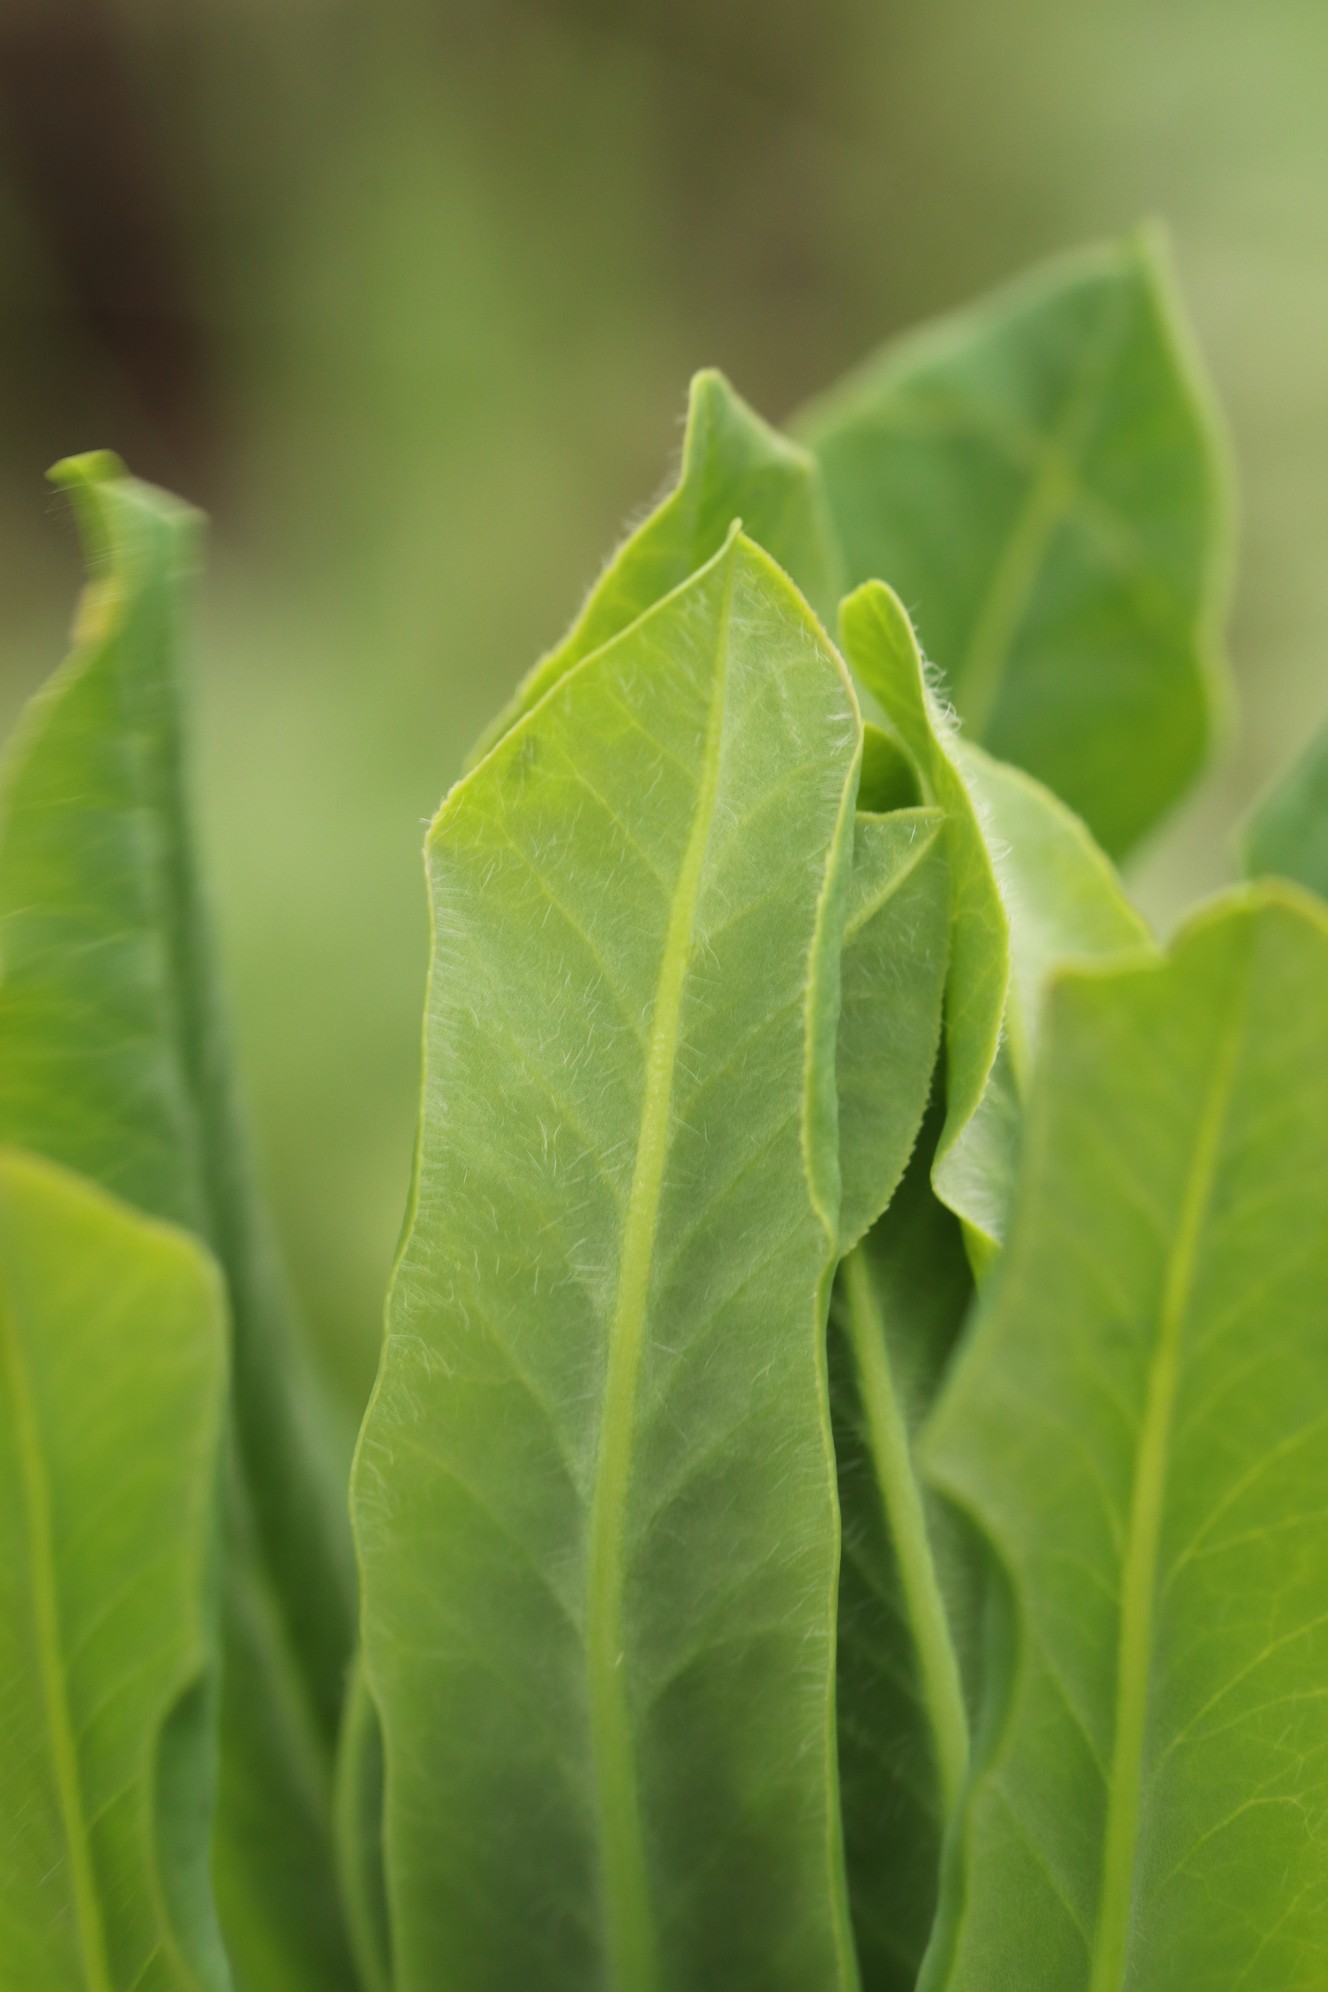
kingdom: Plantae
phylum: Tracheophyta
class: Magnoliopsida
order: Malpighiales
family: Euphorbiaceae
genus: Euphorbia
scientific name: Euphorbia pilosa
